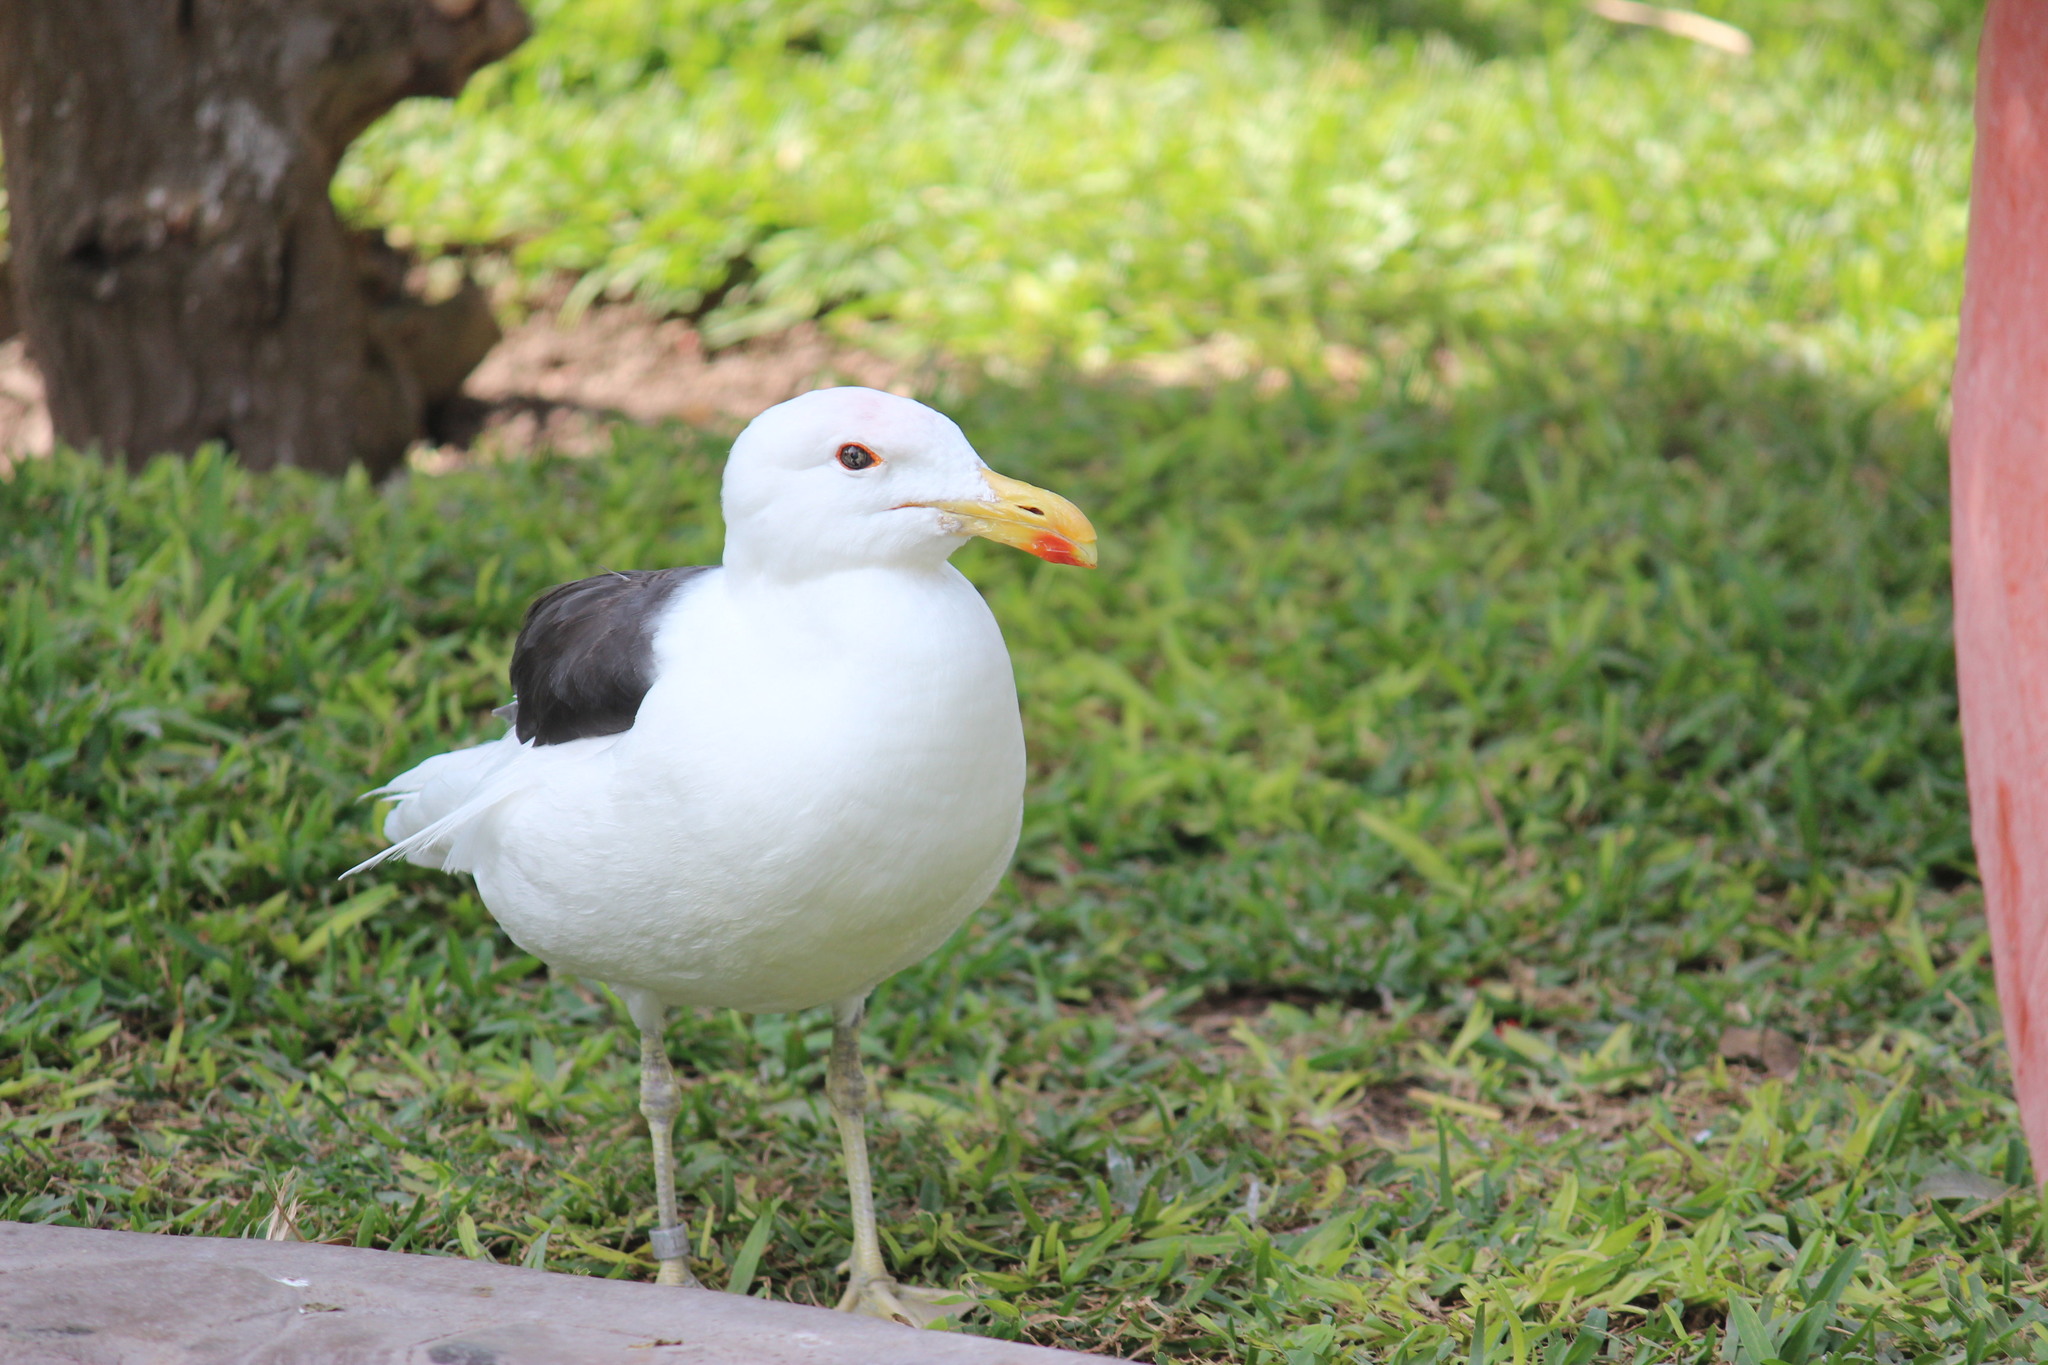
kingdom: Animalia
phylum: Chordata
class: Aves
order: Charadriiformes
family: Laridae
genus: Larus
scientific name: Larus dominicanus
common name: Kelp gull
